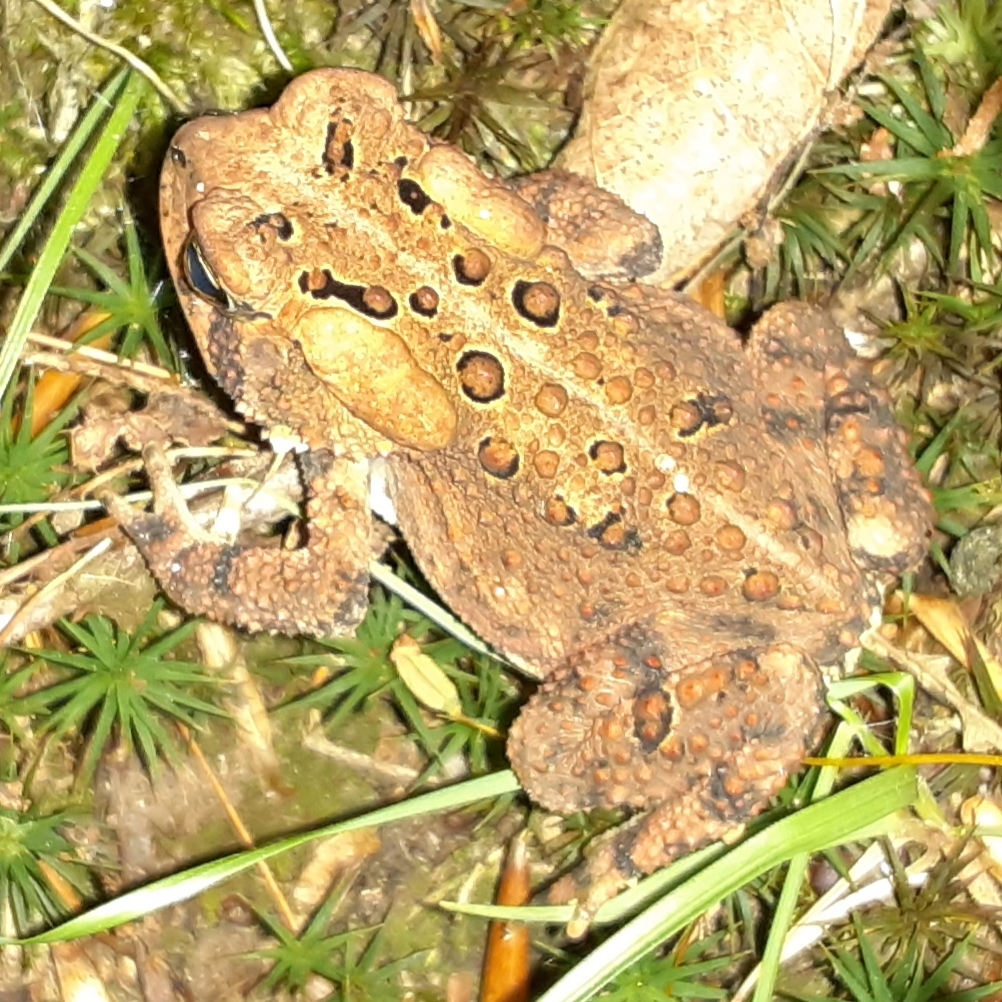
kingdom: Animalia
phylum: Chordata
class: Amphibia
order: Anura
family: Bufonidae
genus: Anaxyrus
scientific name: Anaxyrus americanus
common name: American toad
